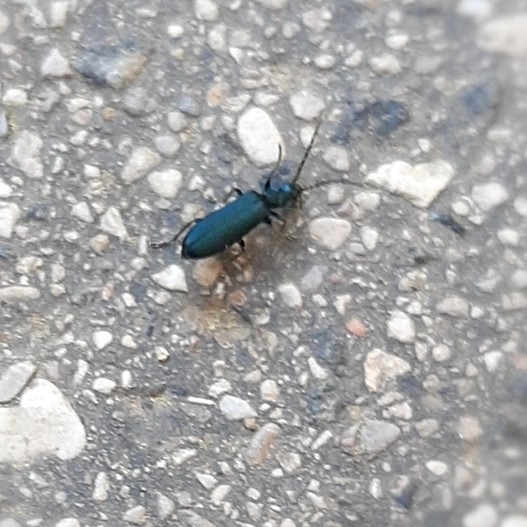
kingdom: Animalia
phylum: Arthropoda
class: Insecta
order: Coleoptera
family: Oedemeridae
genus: Ischnomera
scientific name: Ischnomera
